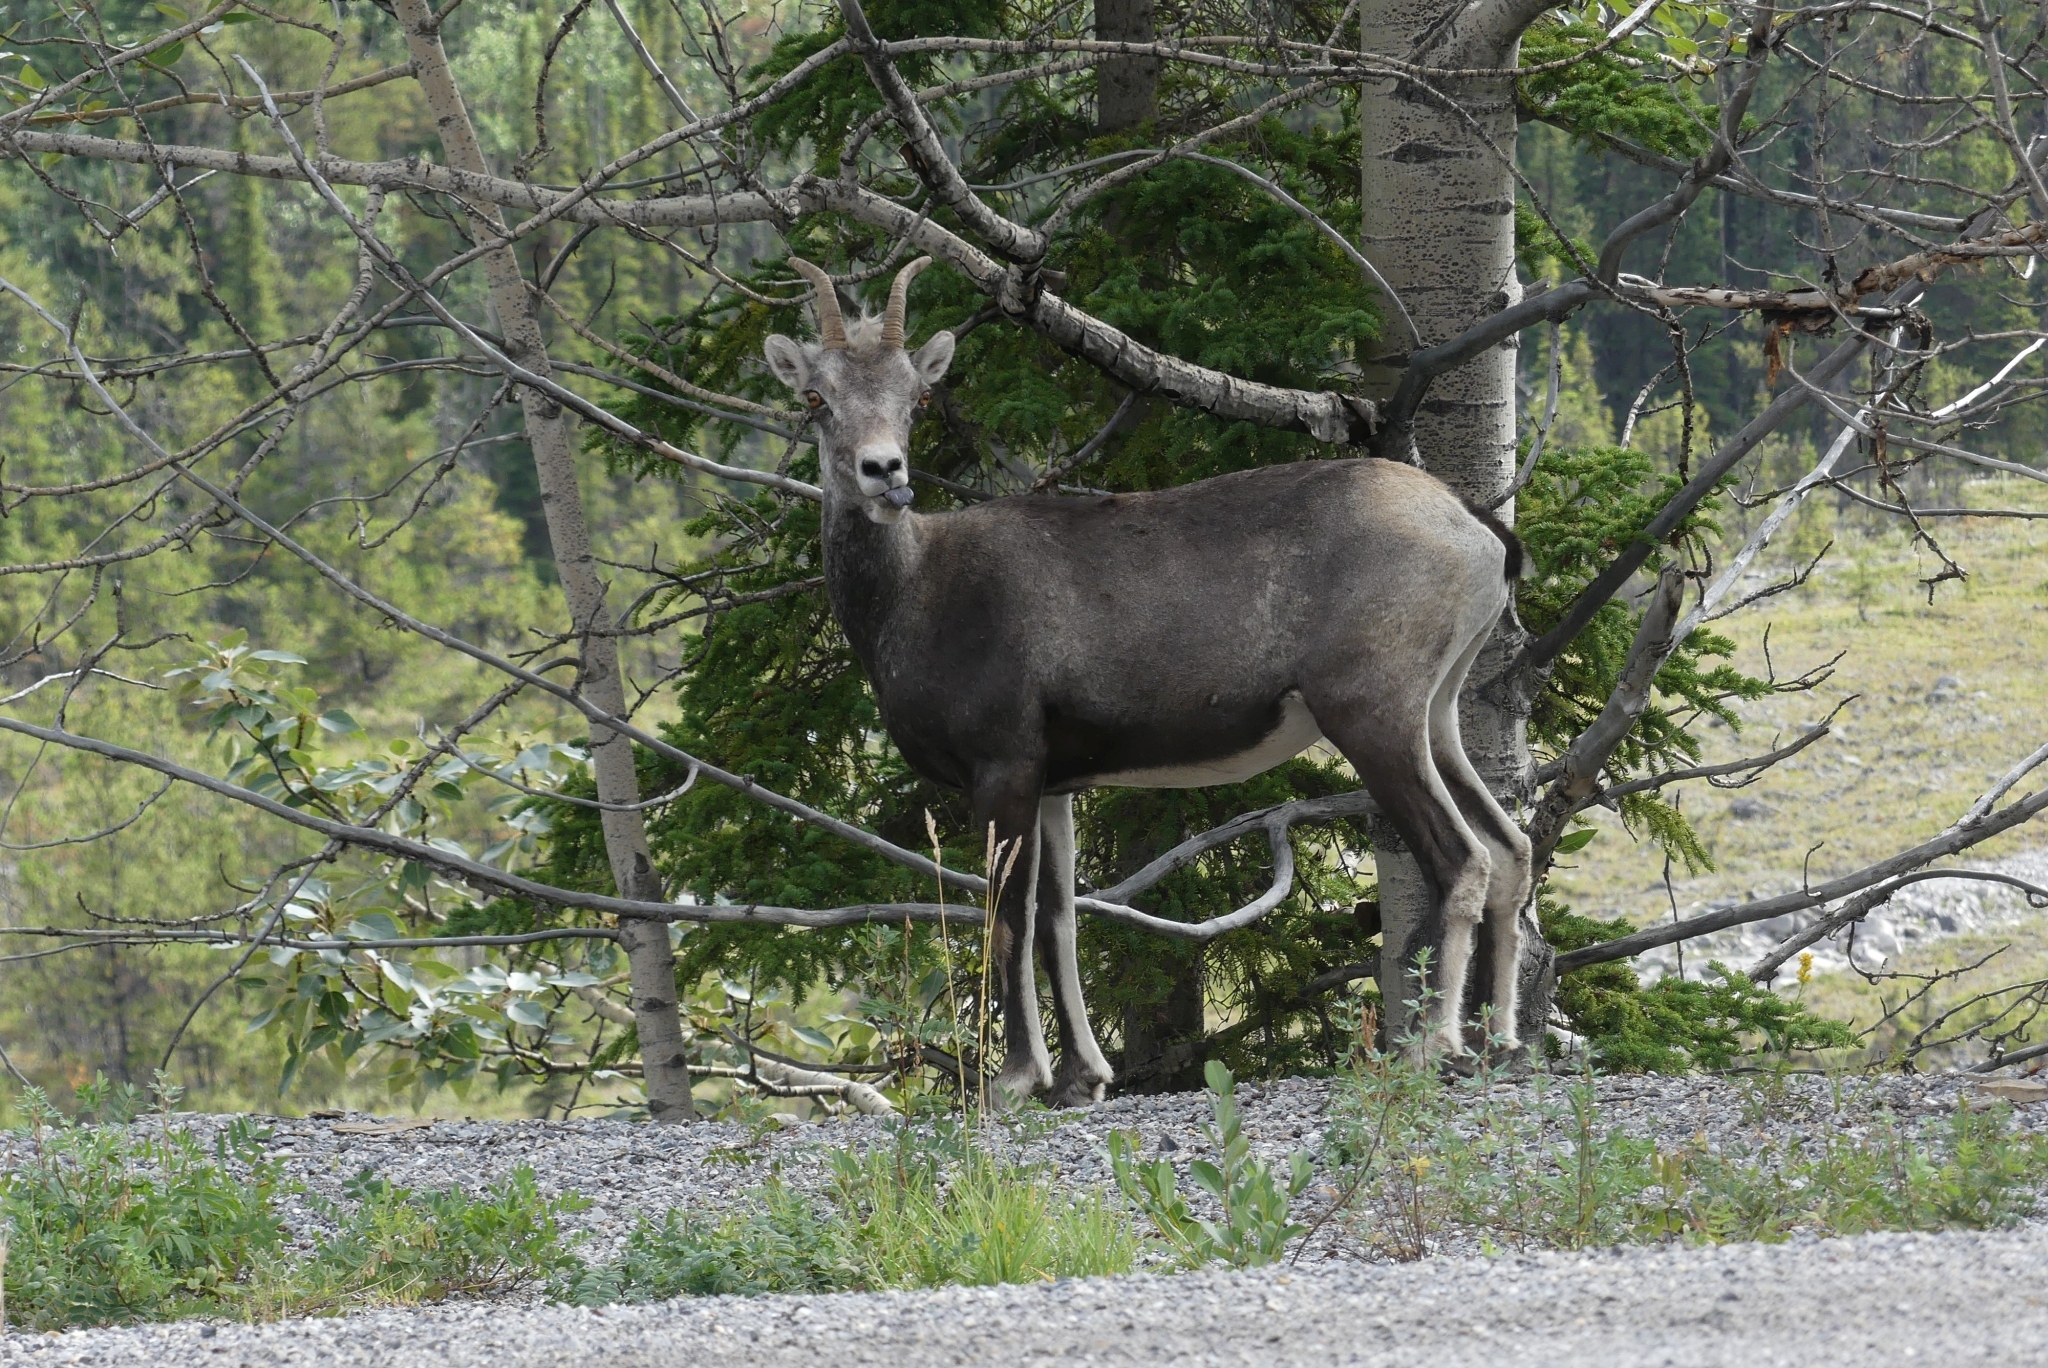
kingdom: Animalia
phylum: Chordata
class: Mammalia
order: Artiodactyla
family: Bovidae
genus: Ovis
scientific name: Ovis dalli
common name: Dall's sheep
